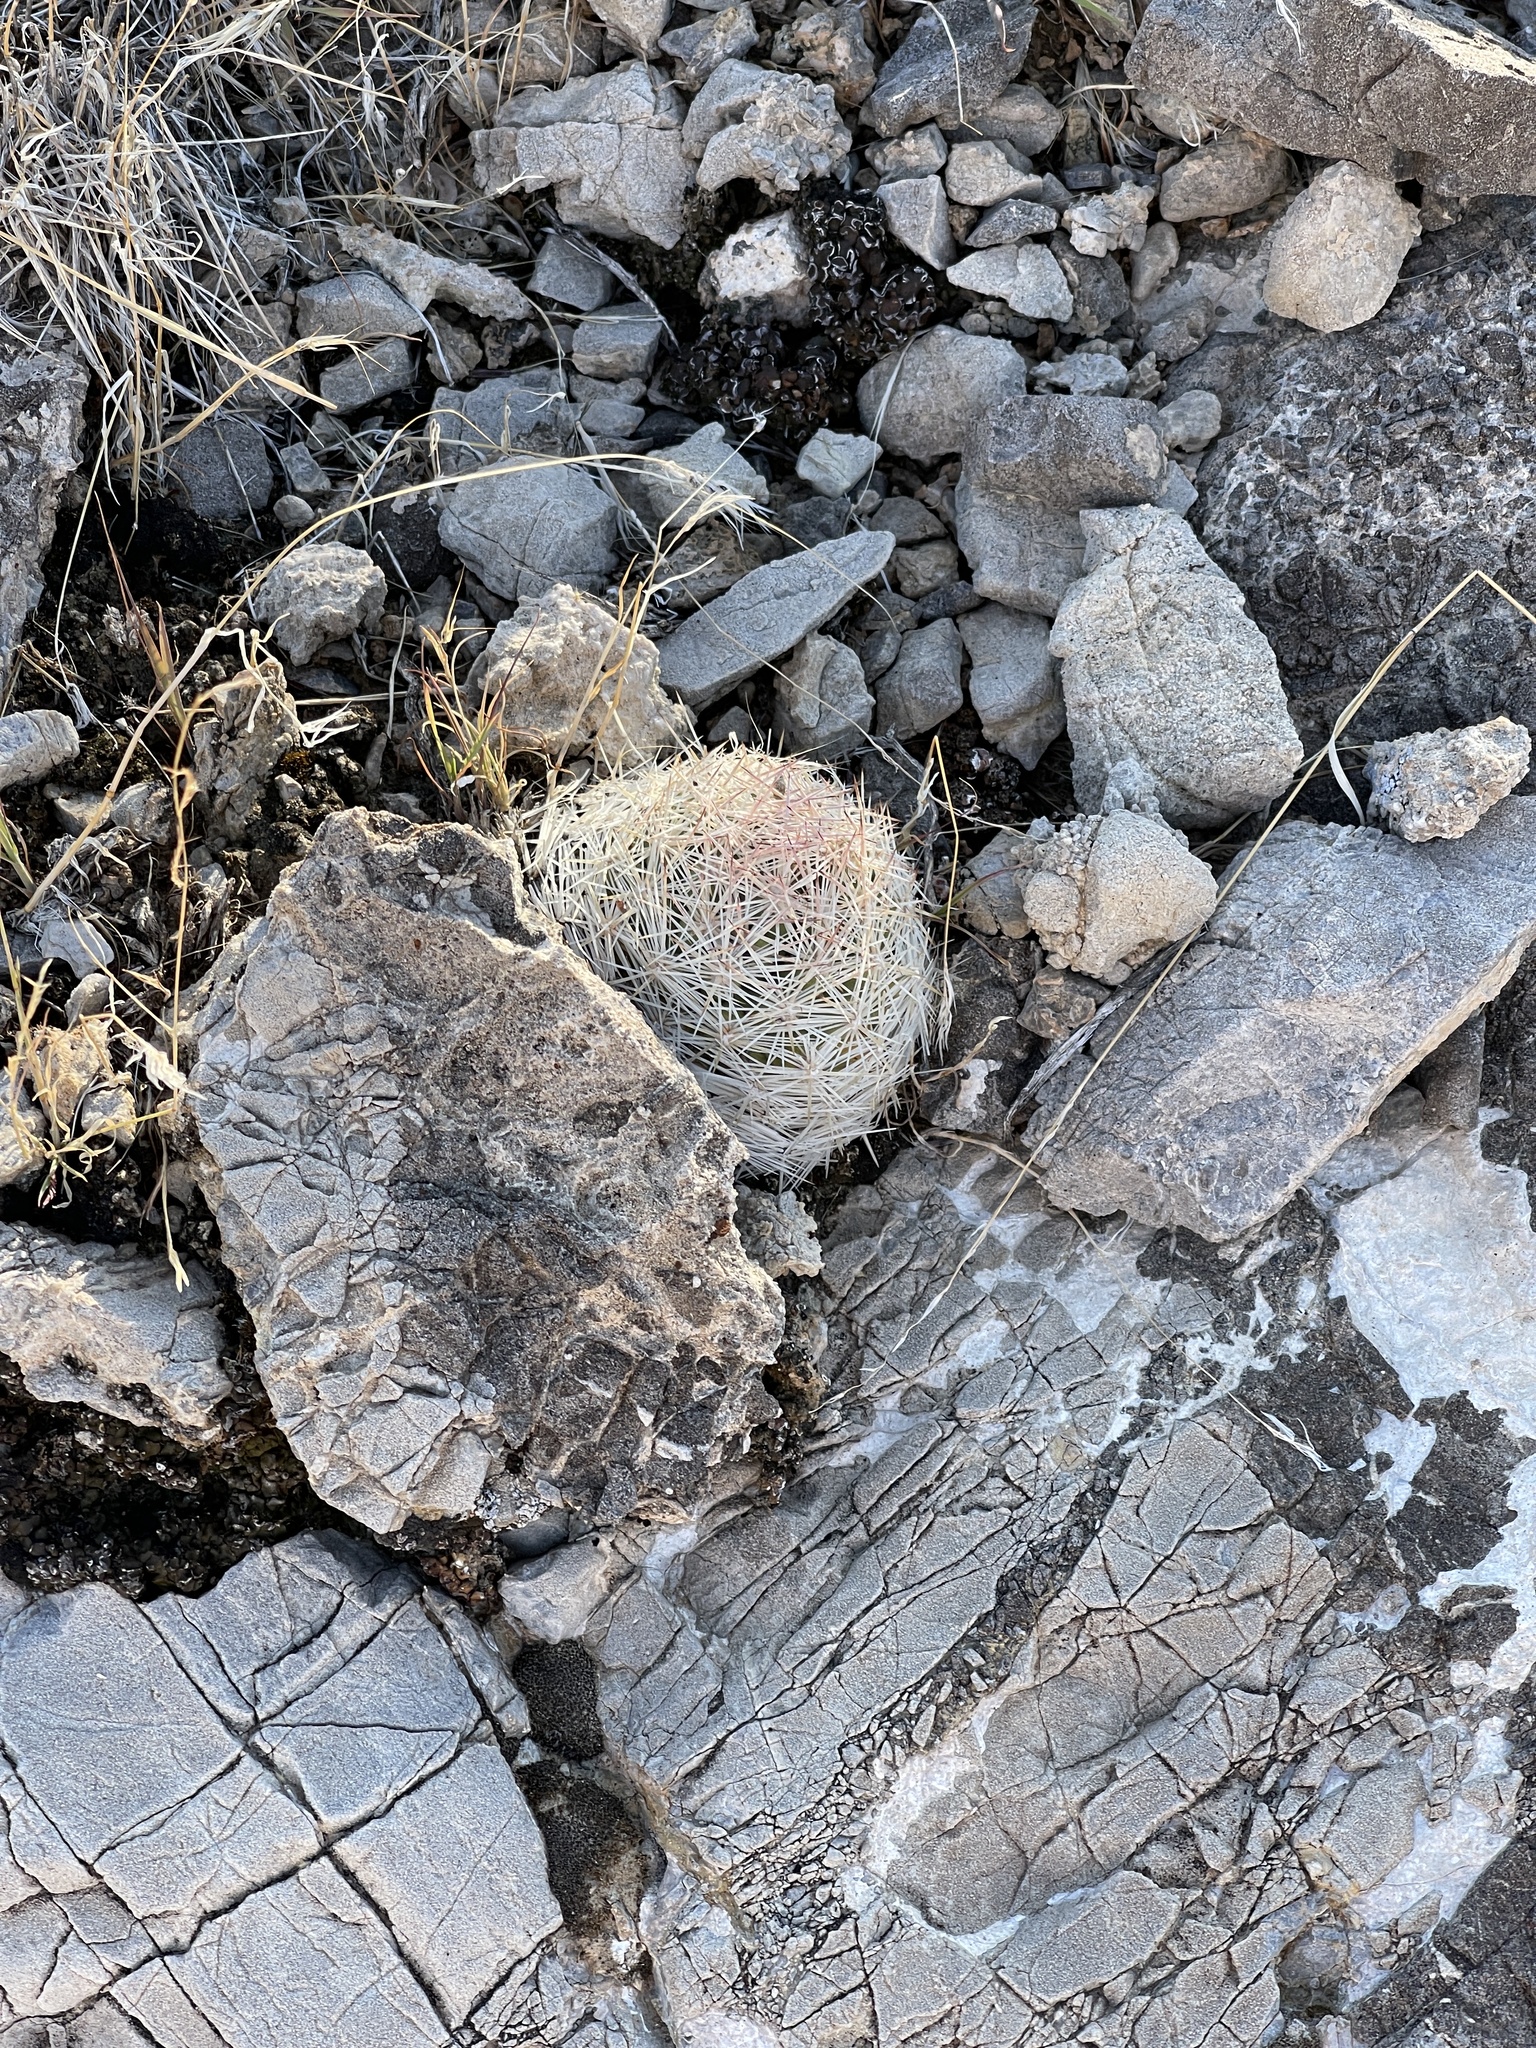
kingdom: Plantae
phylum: Tracheophyta
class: Magnoliopsida
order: Caryophyllales
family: Cactaceae
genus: Pelecyphora
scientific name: Pelecyphora dasyacantha
